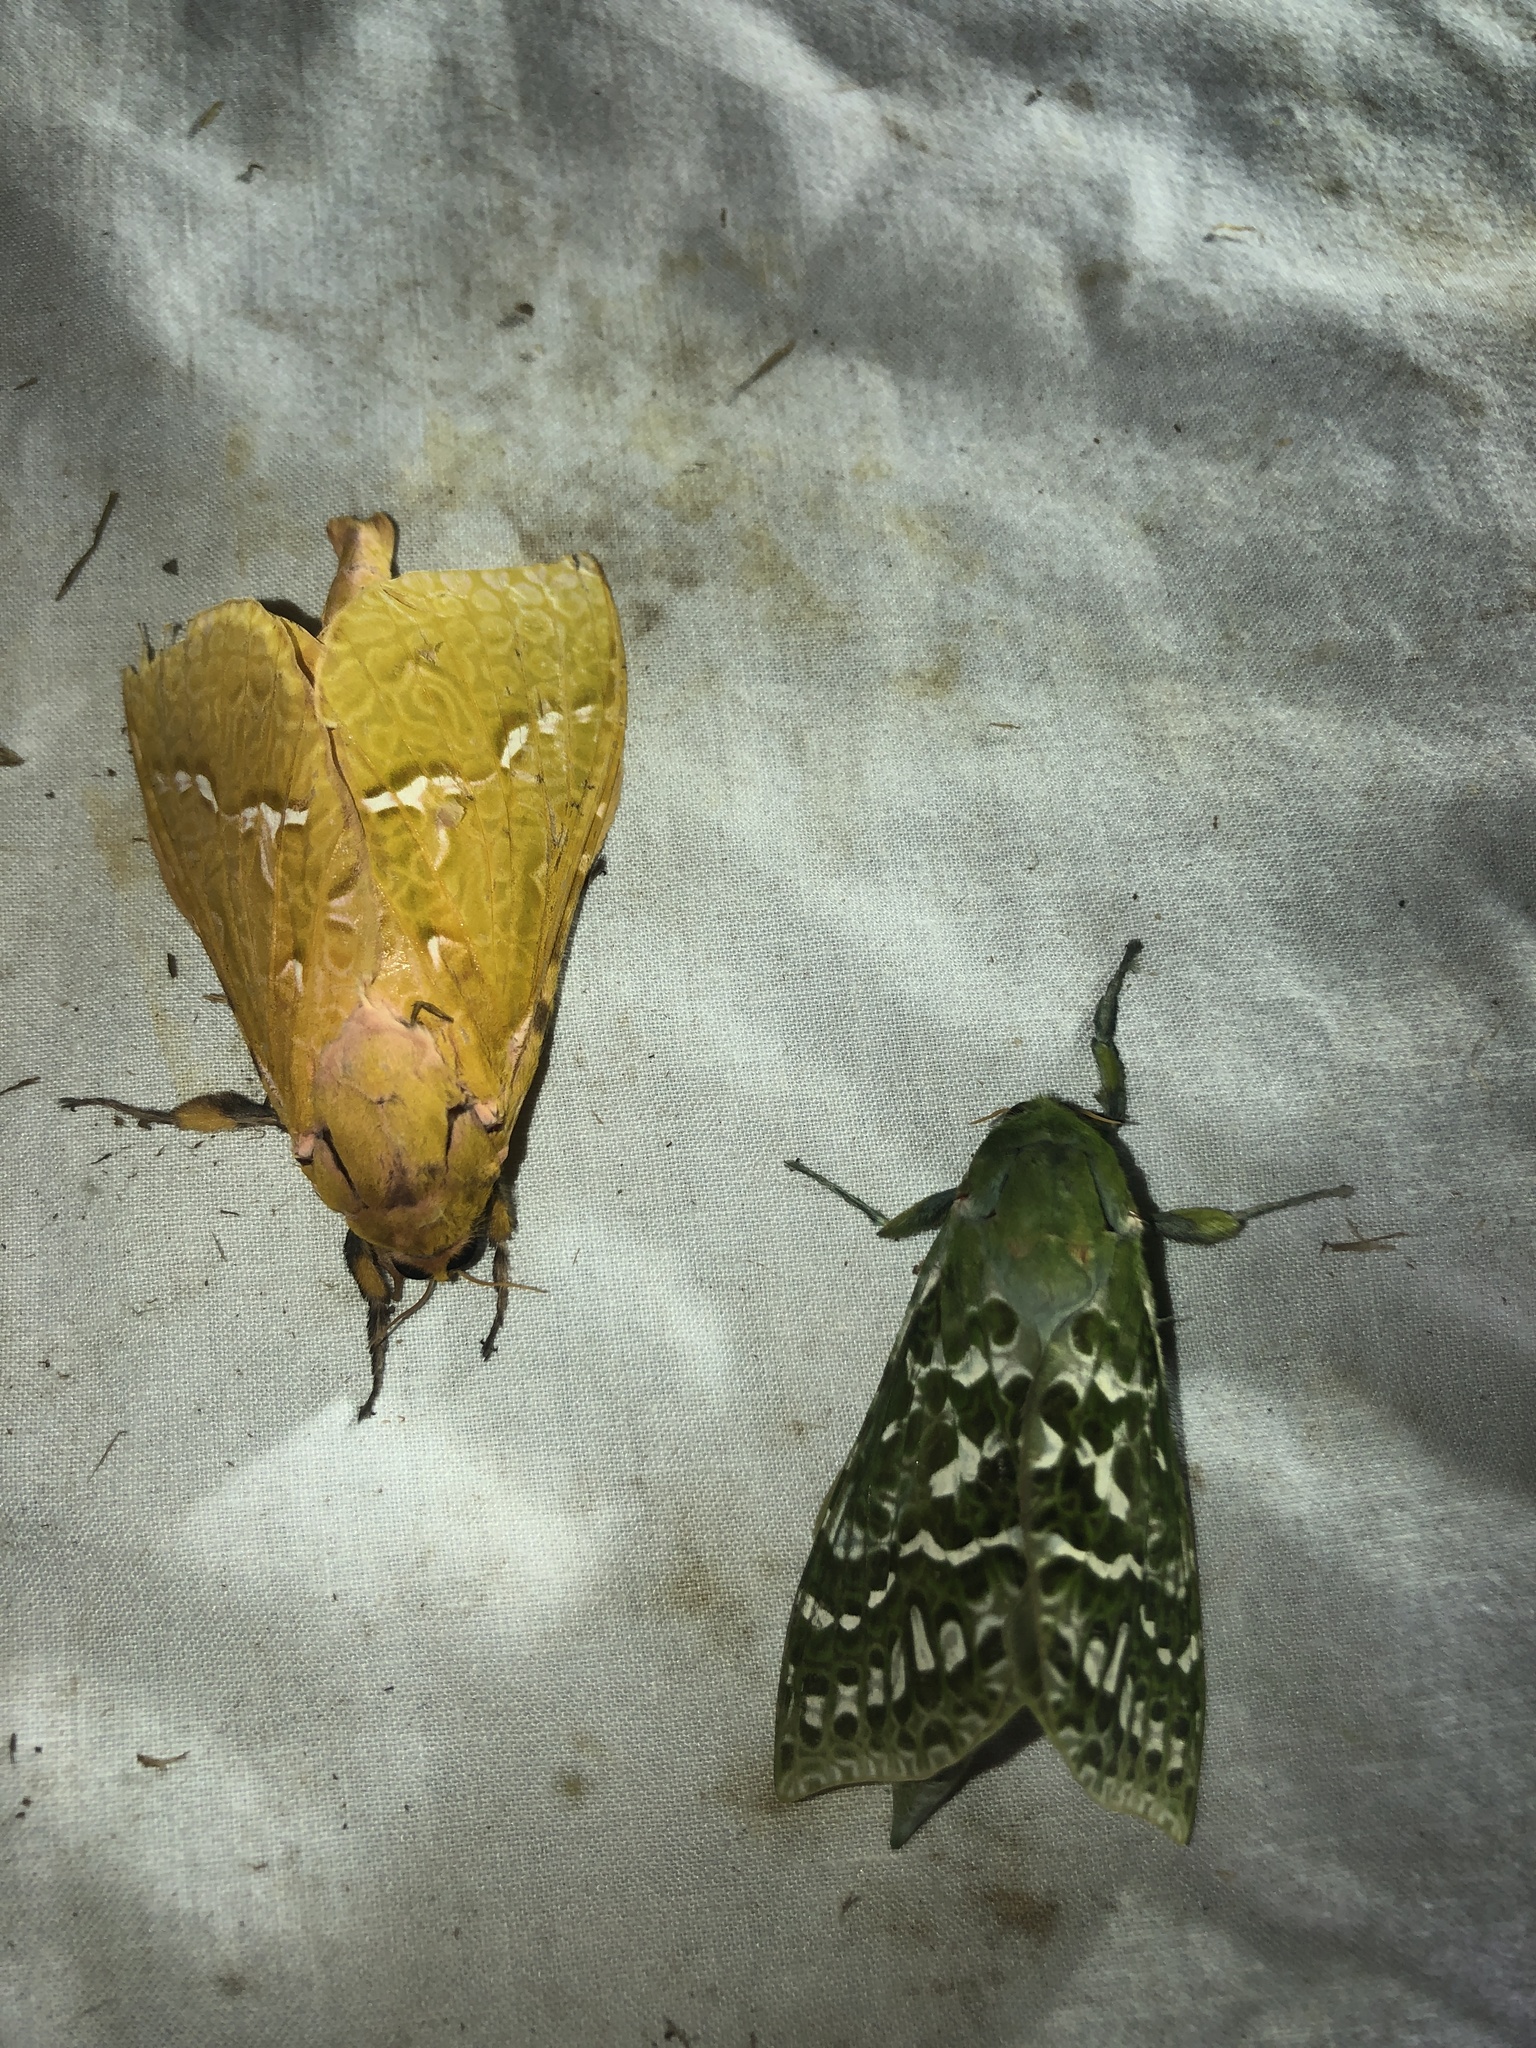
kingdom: Animalia
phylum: Arthropoda
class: Insecta
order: Lepidoptera
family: Hepialidae
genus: Aenetus
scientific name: Aenetus virescens
